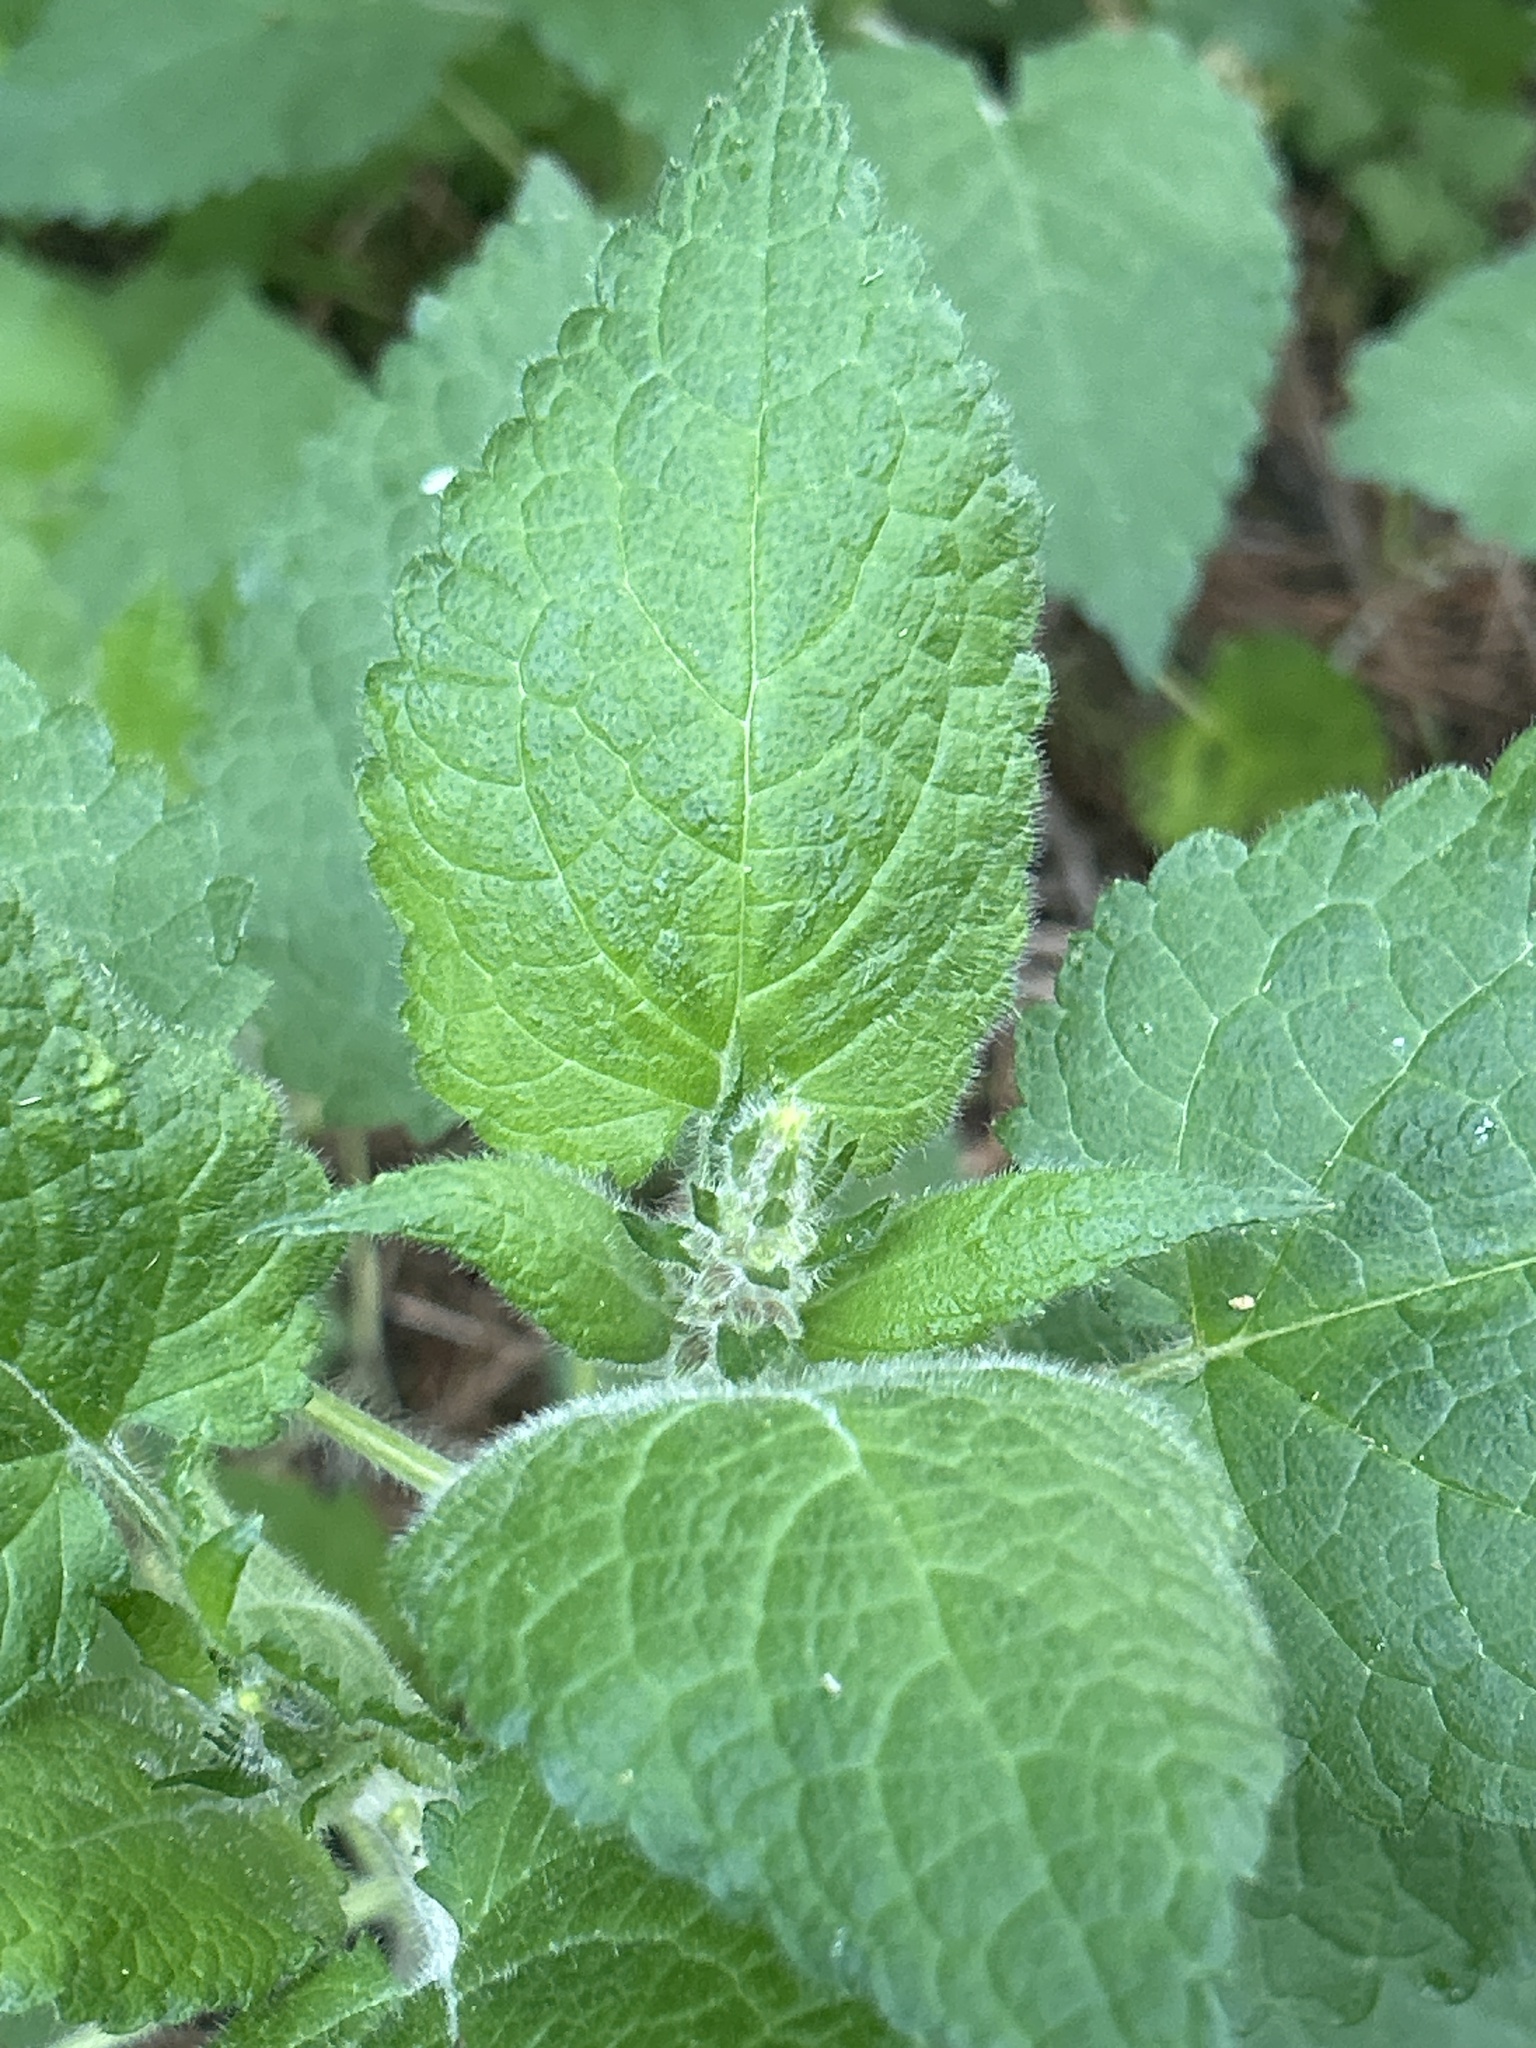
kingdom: Plantae
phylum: Tracheophyta
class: Magnoliopsida
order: Lamiales
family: Lamiaceae
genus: Stachys
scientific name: Stachys sylvatica
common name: Hedge woundwort
